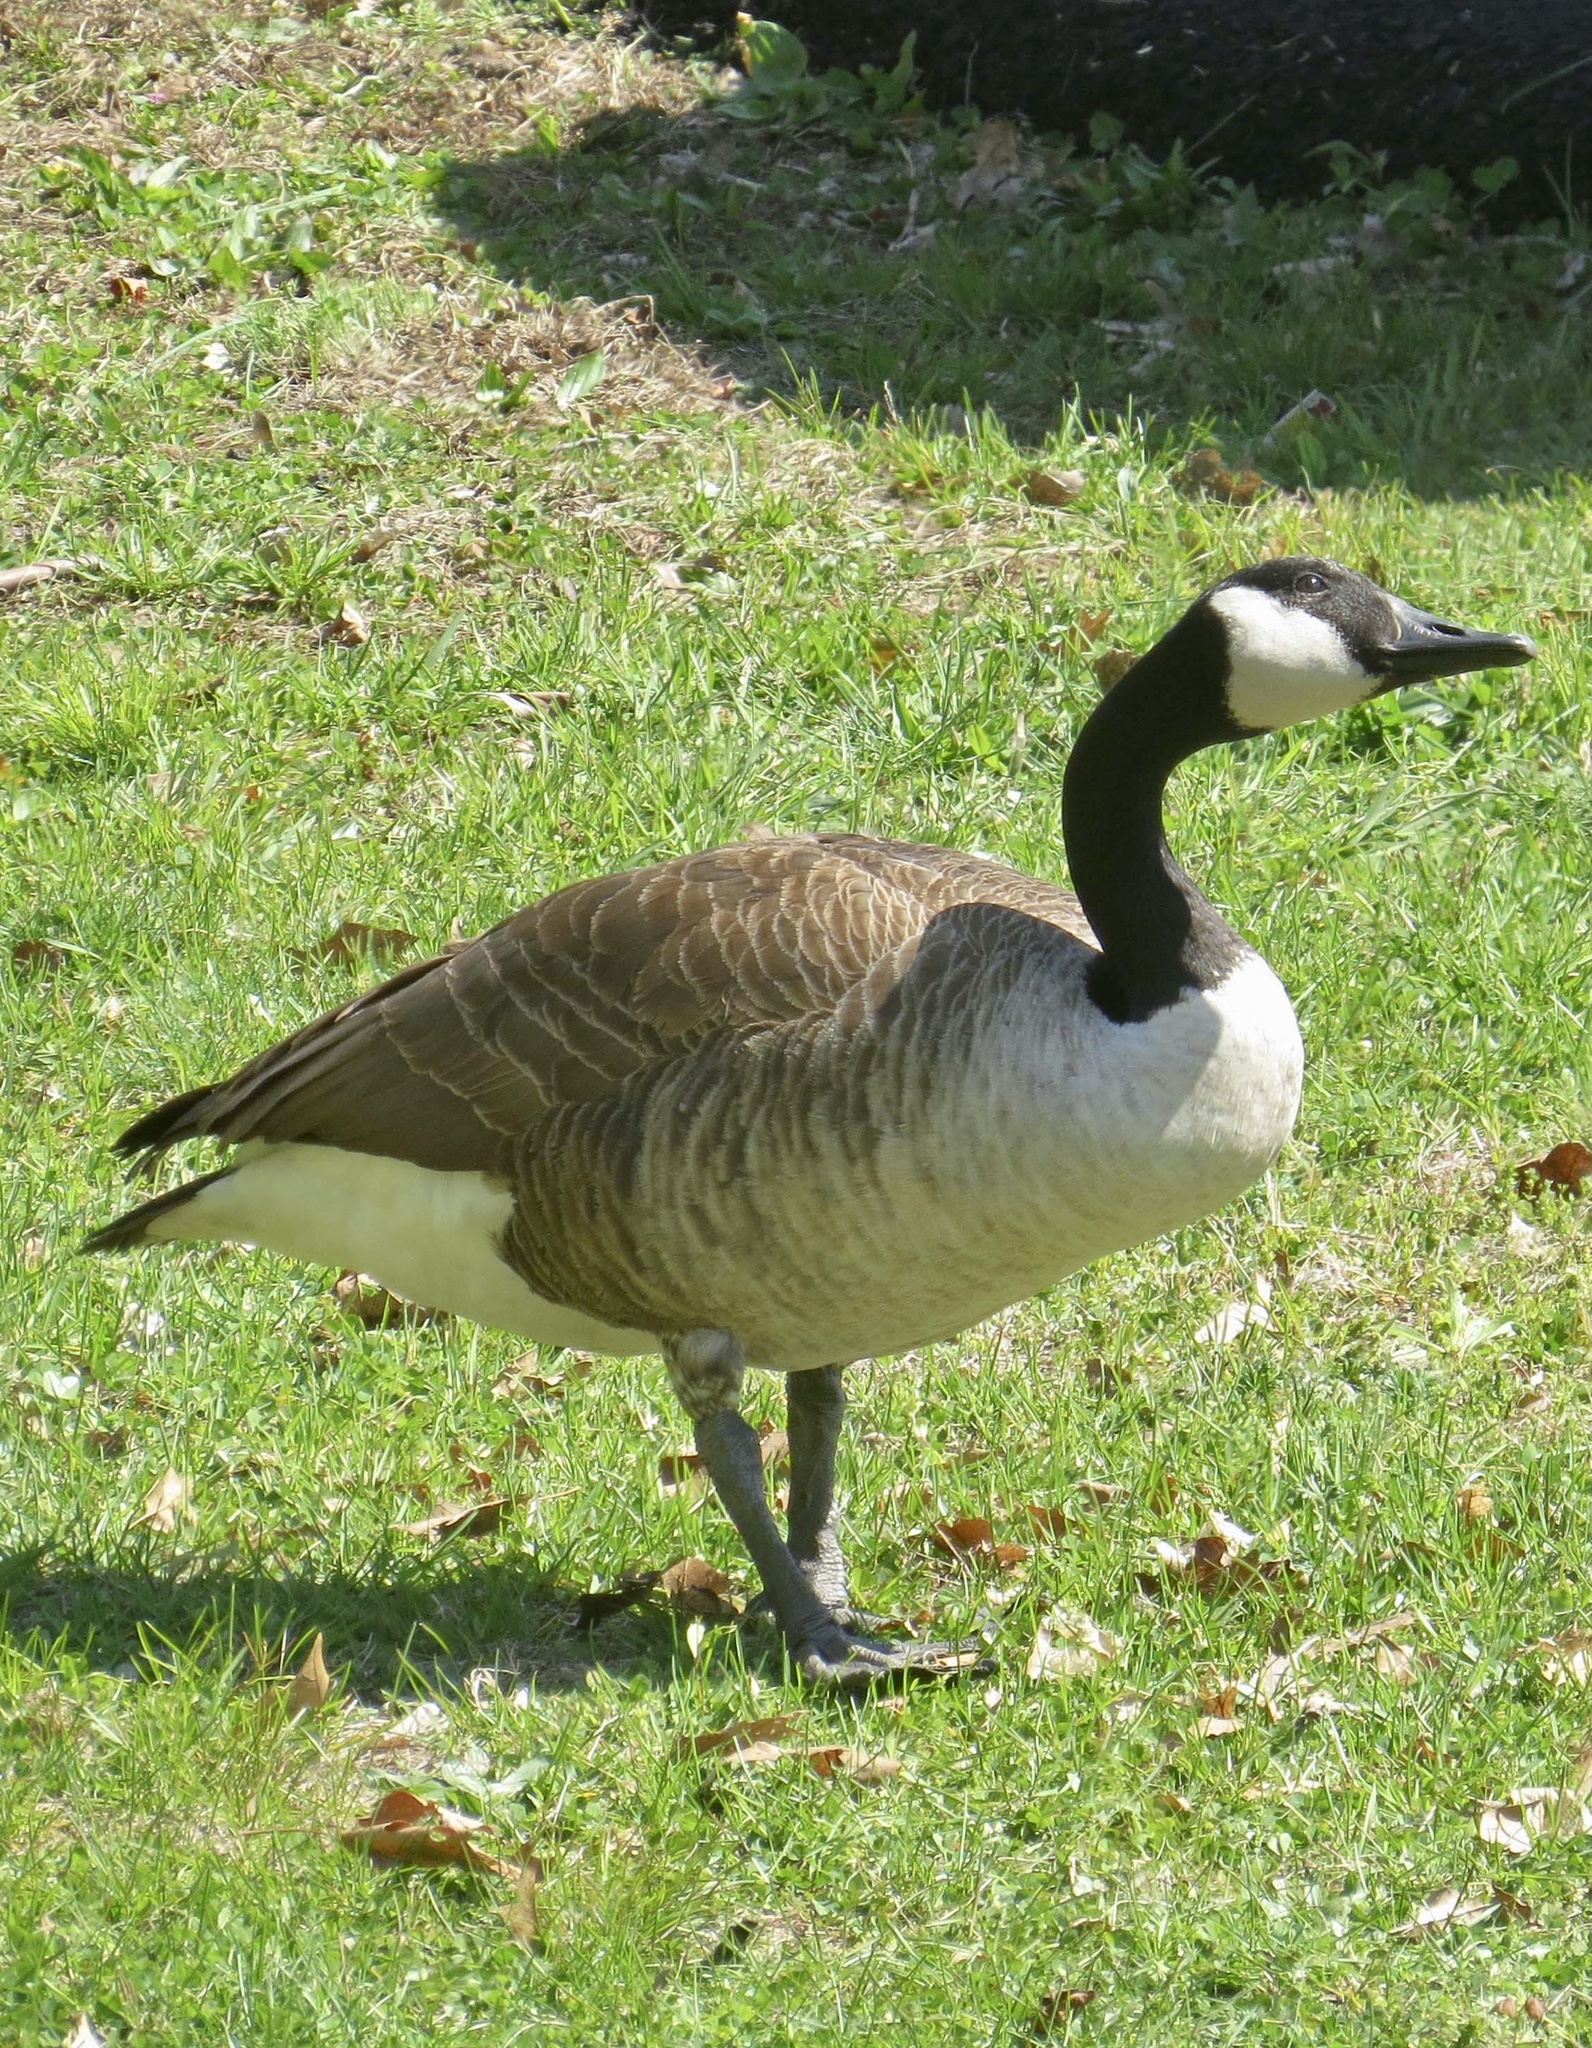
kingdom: Animalia
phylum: Chordata
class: Aves
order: Anseriformes
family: Anatidae
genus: Branta
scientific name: Branta canadensis
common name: Canada goose
